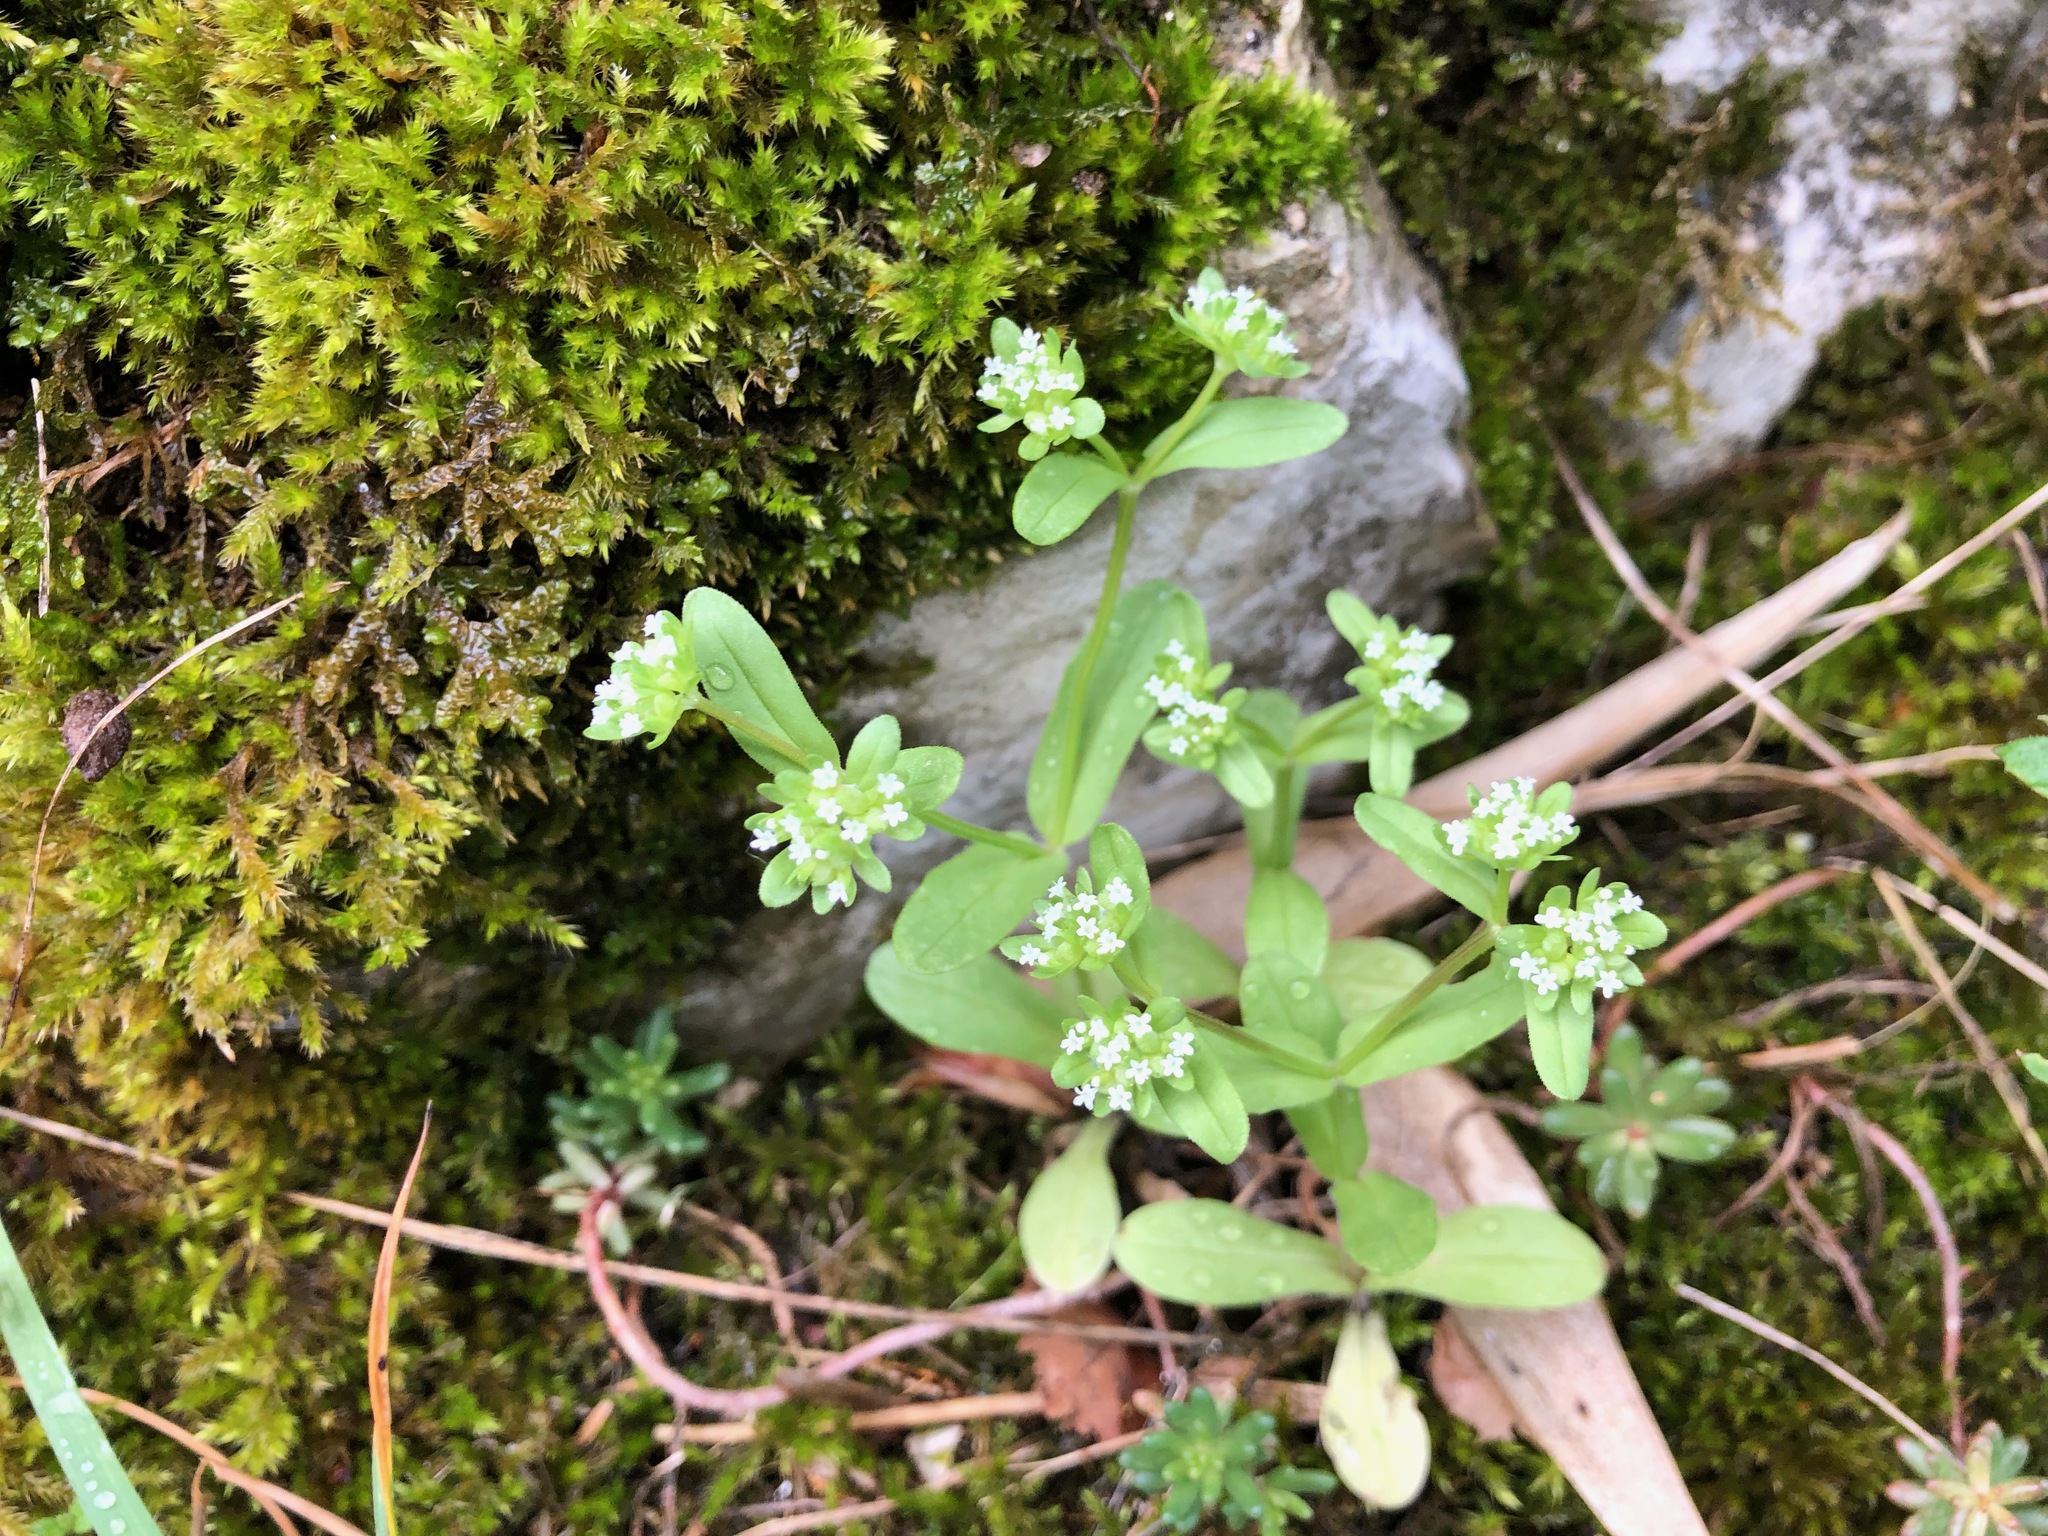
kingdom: Plantae
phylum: Tracheophyta
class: Magnoliopsida
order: Dipsacales
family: Caprifoliaceae
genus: Valerianella
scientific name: Valerianella locusta
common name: Common cornsalad
